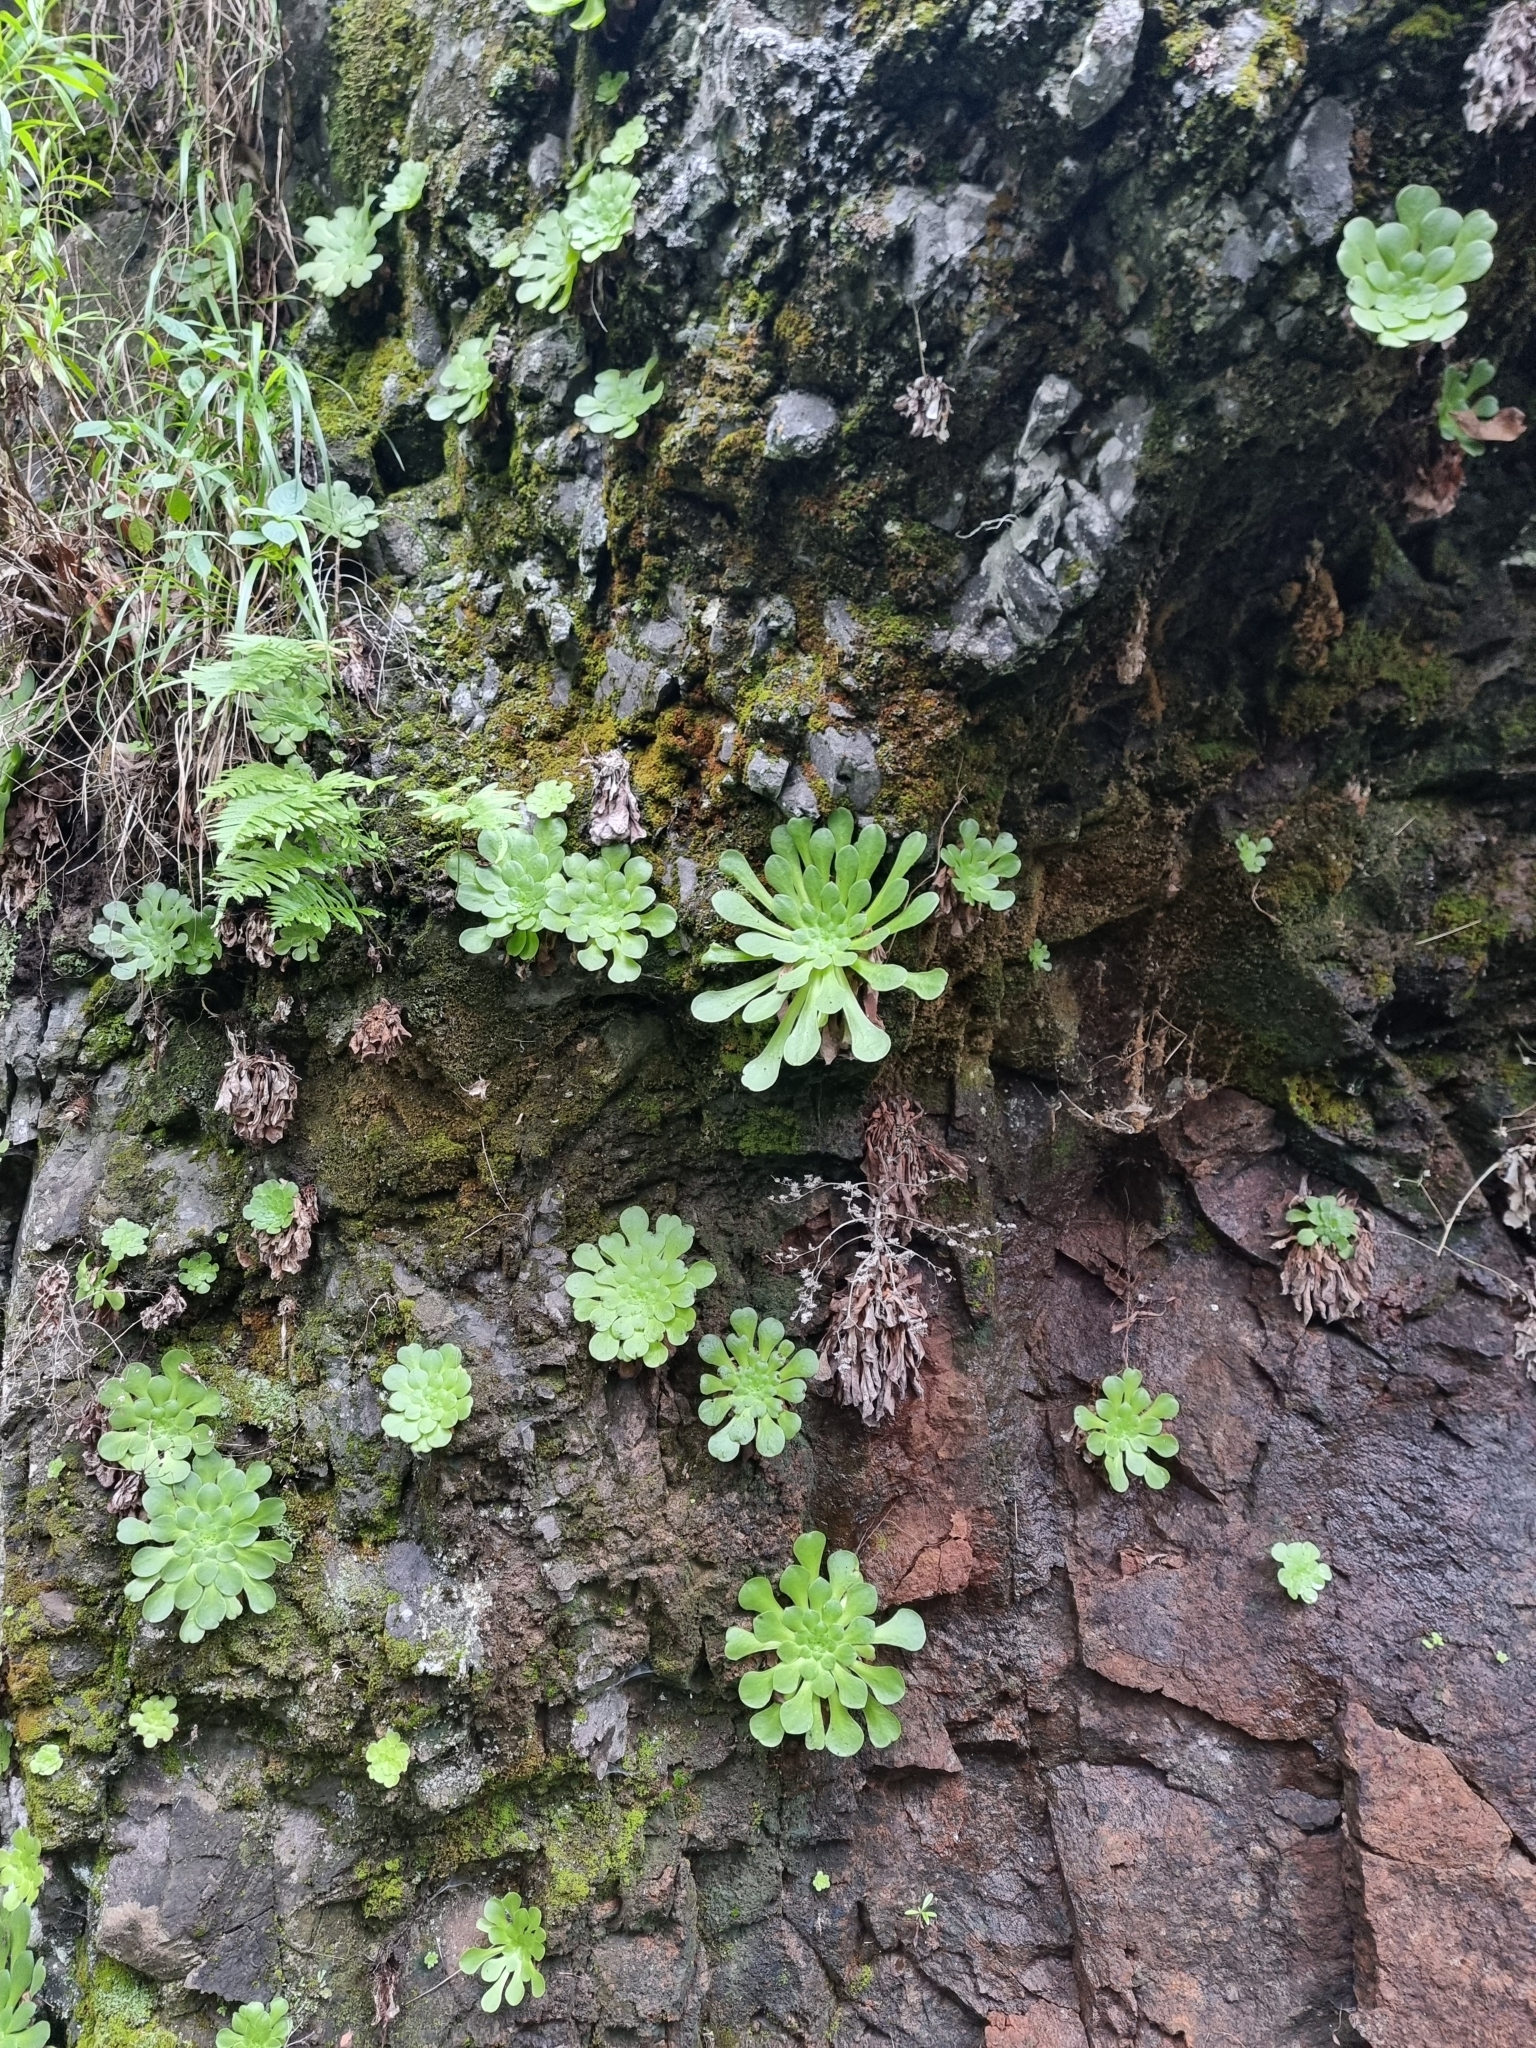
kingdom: Plantae
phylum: Tracheophyta
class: Magnoliopsida
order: Saxifragales
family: Crassulaceae
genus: Aeonium
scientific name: Aeonium glandulosum
